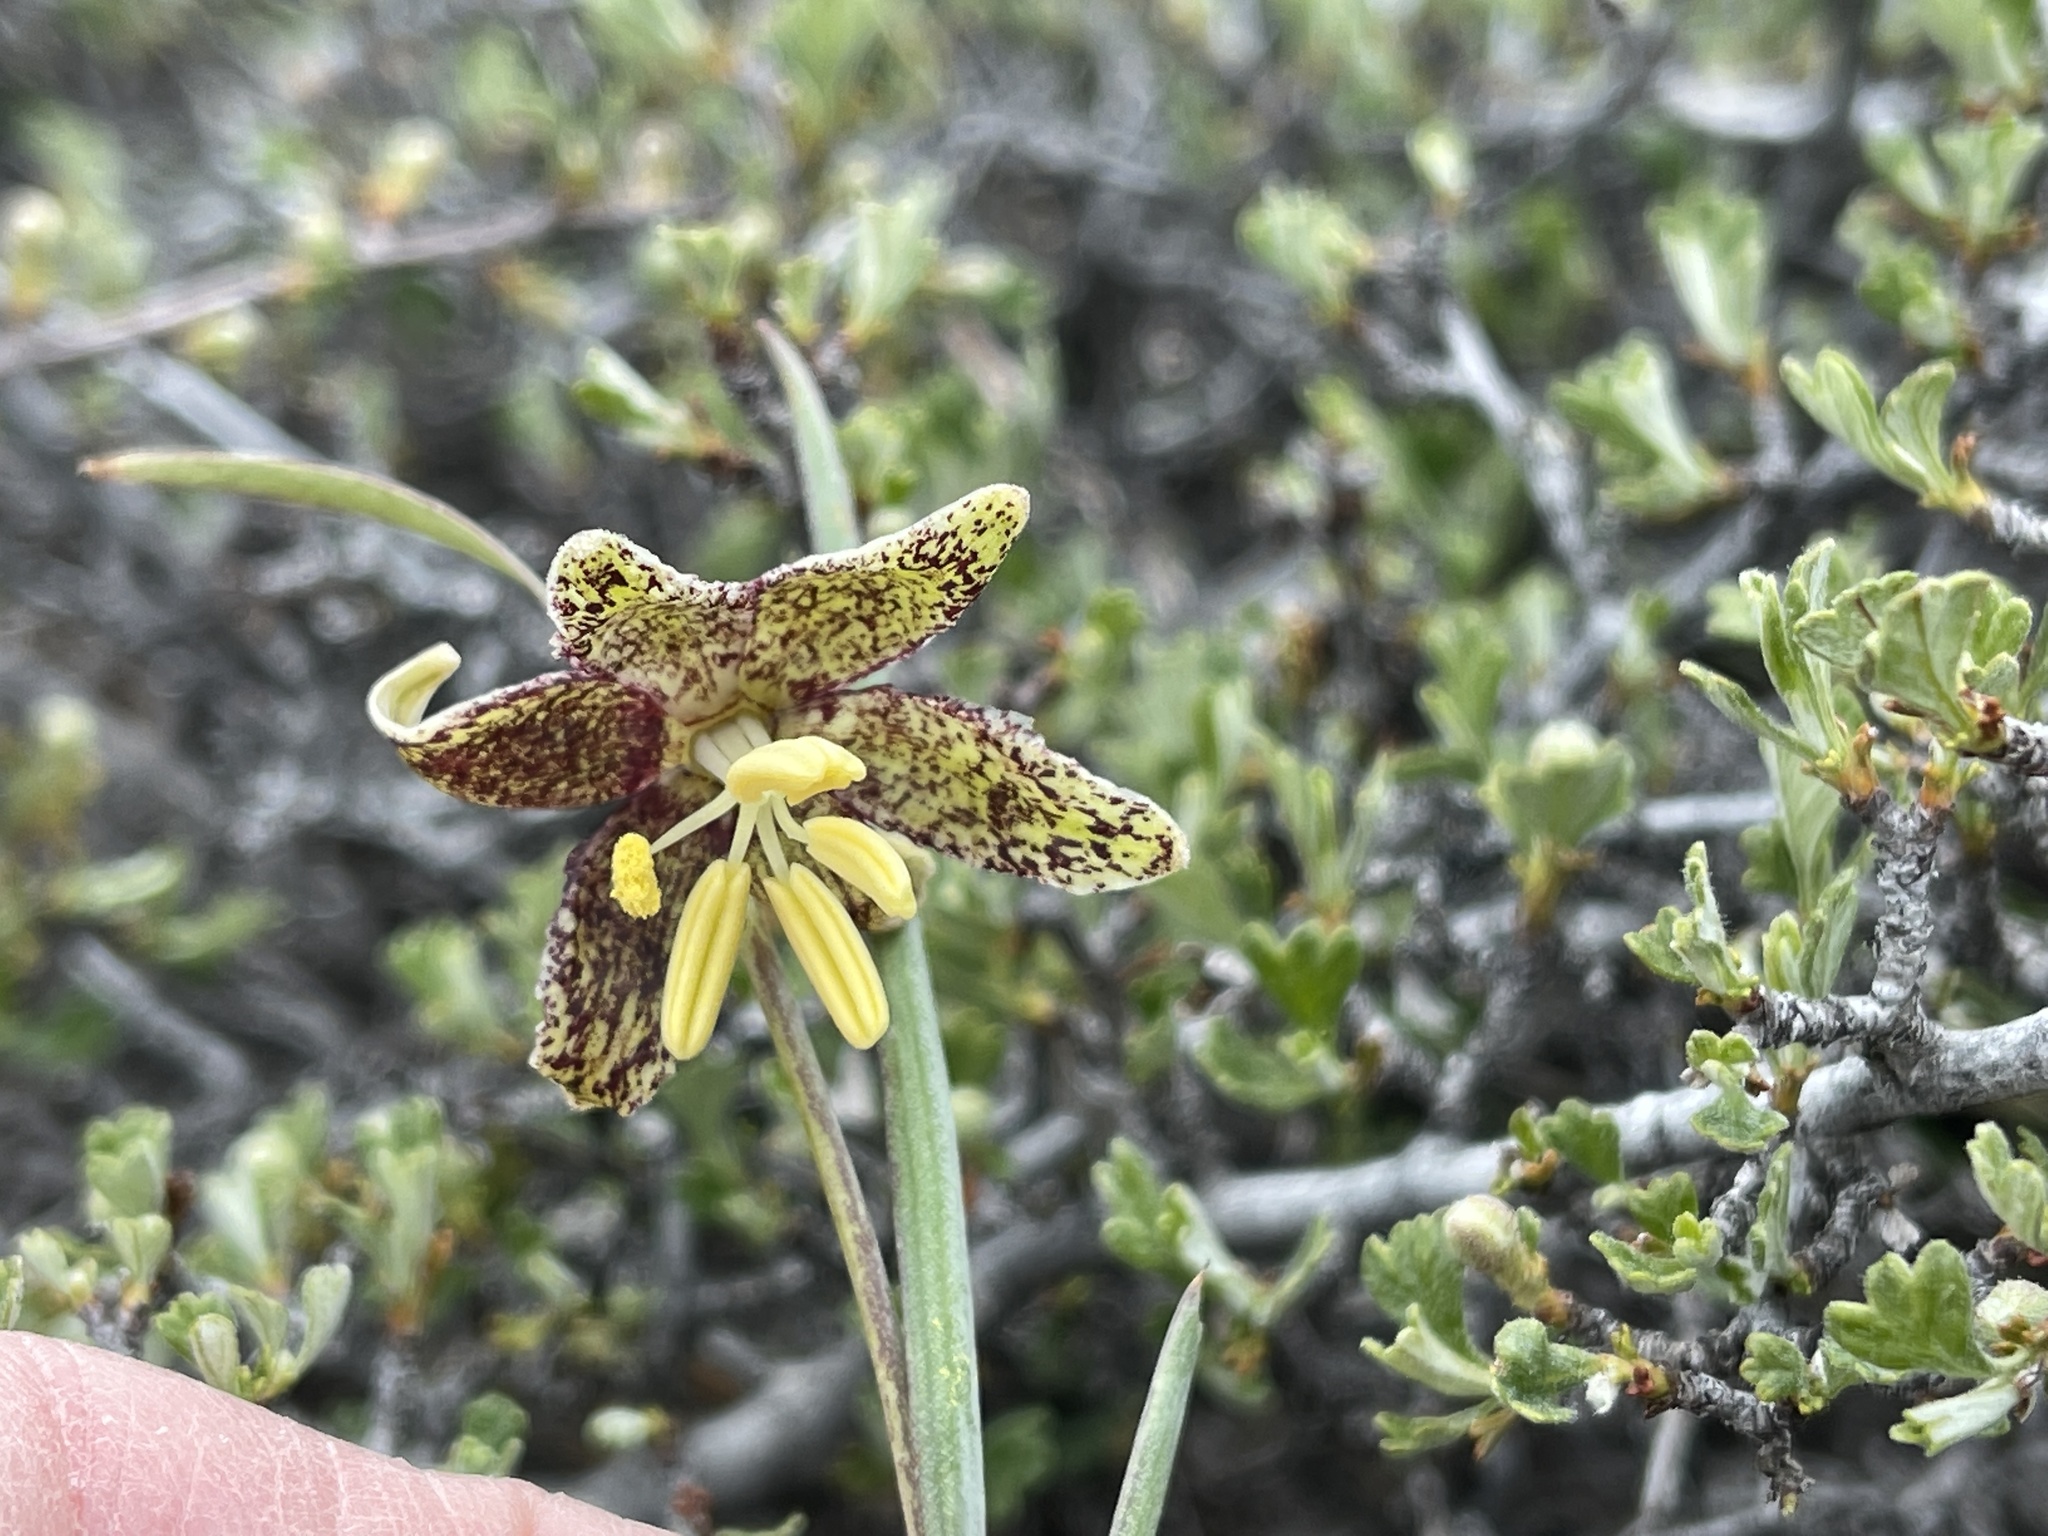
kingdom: Plantae
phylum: Tracheophyta
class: Liliopsida
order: Liliales
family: Liliaceae
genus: Fritillaria
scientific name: Fritillaria atropurpurea
